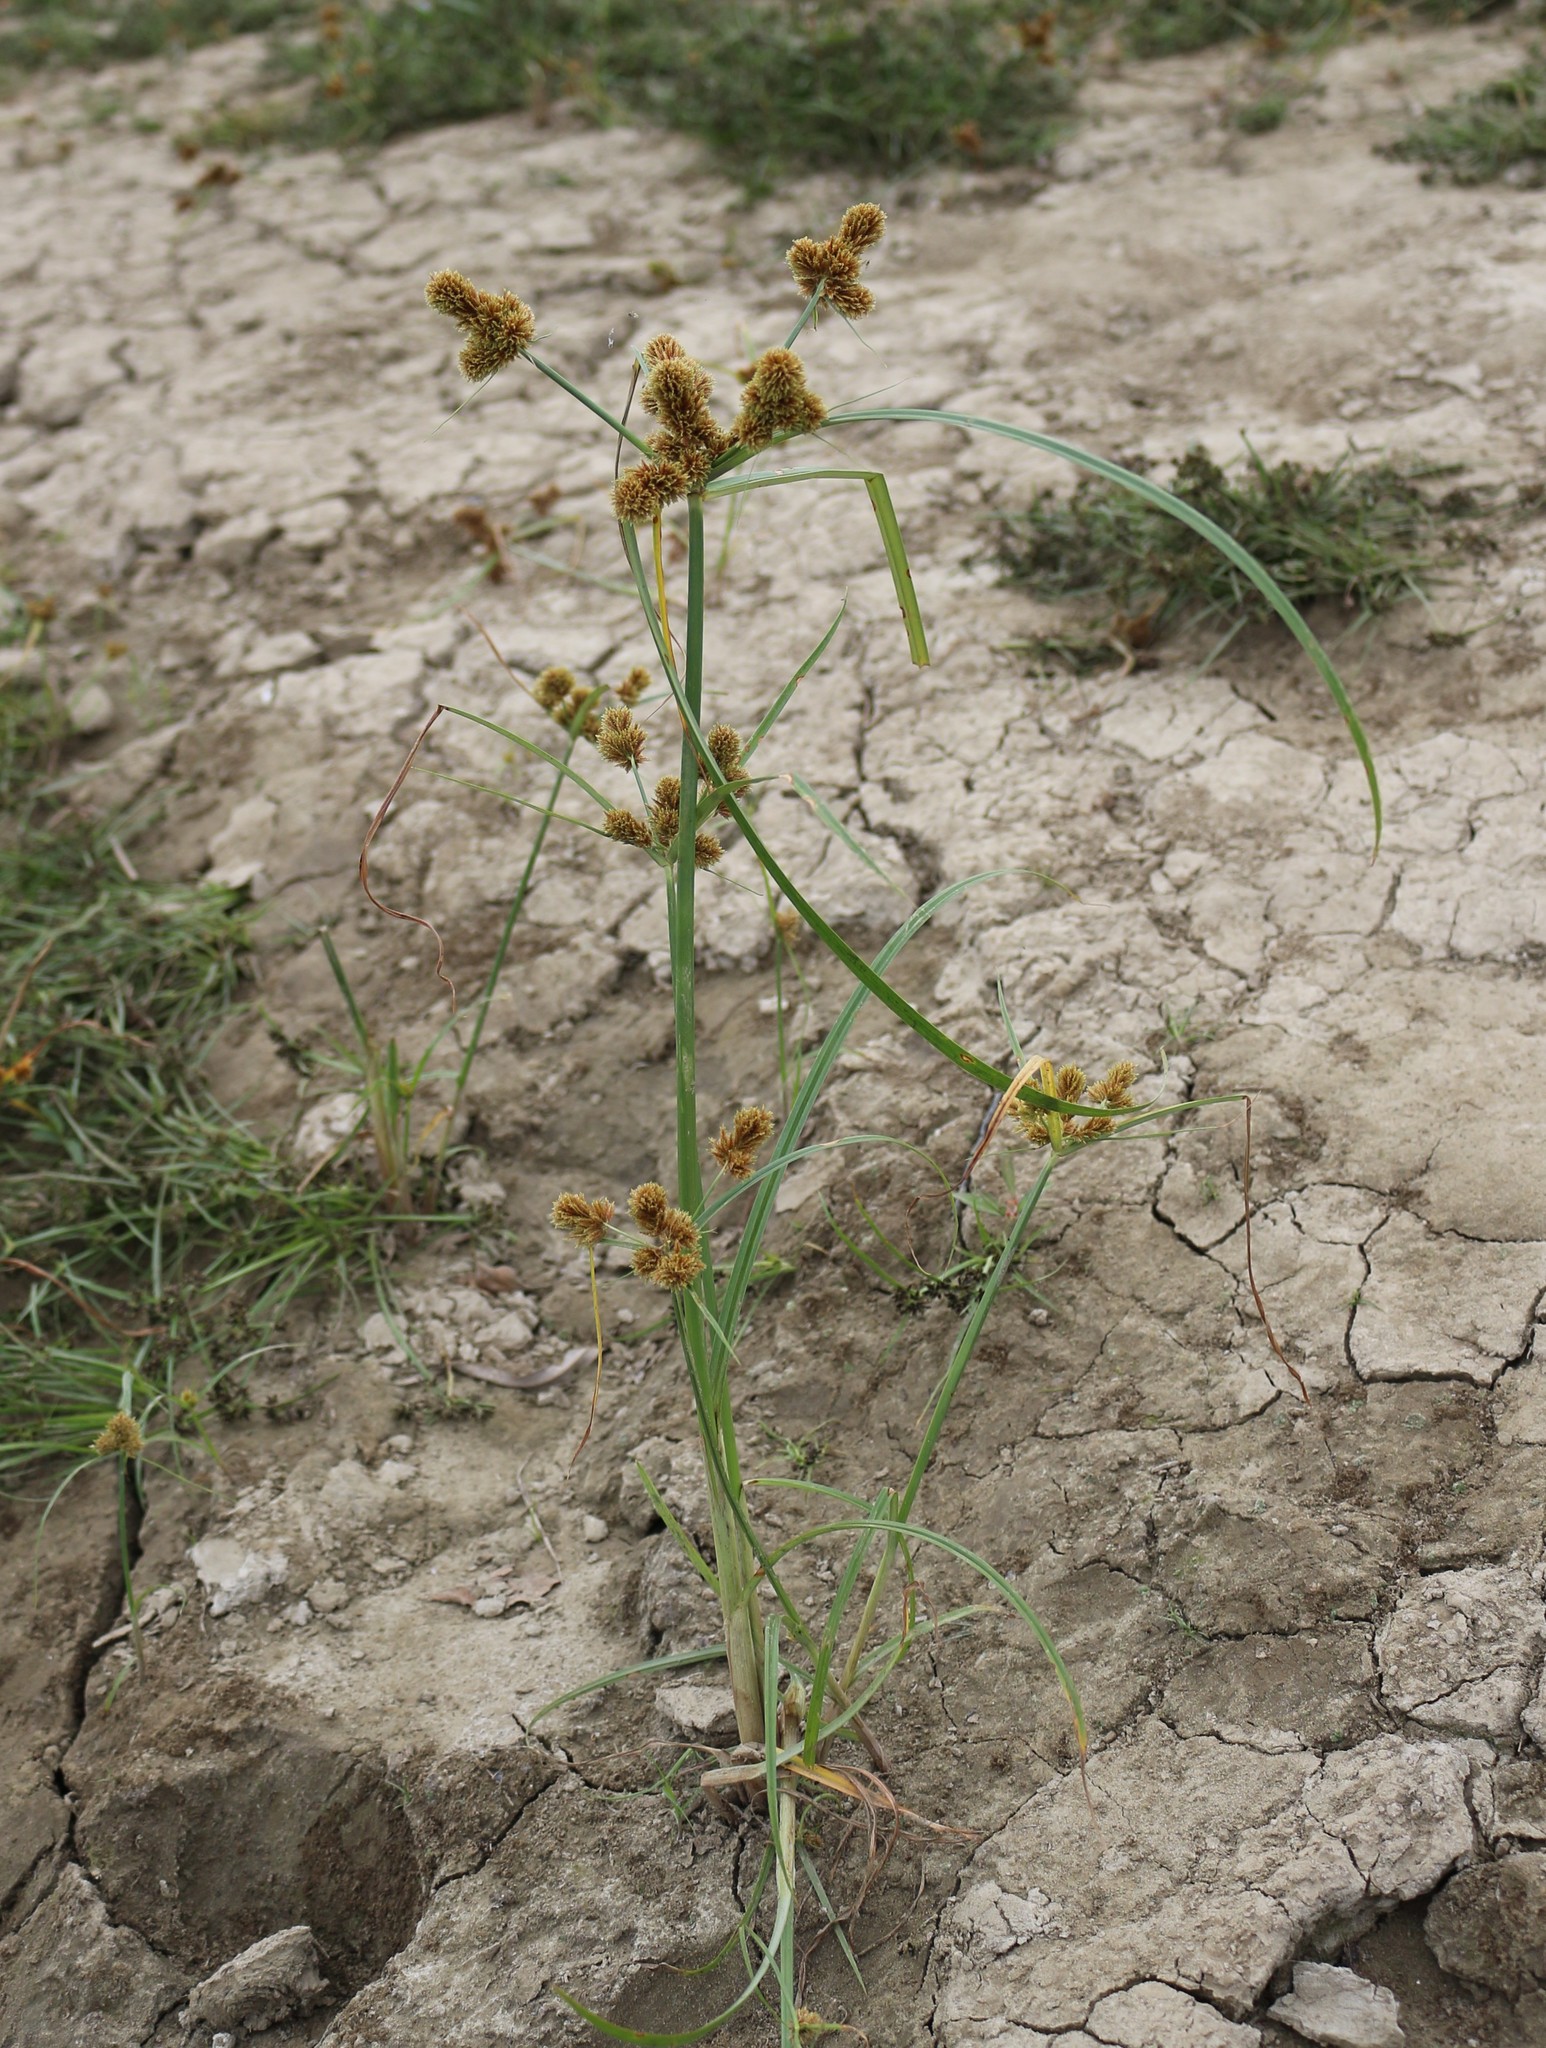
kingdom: Plantae
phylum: Tracheophyta
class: Liliopsida
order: Poales
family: Cyperaceae
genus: Cyperus
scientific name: Cyperus glomeratus
